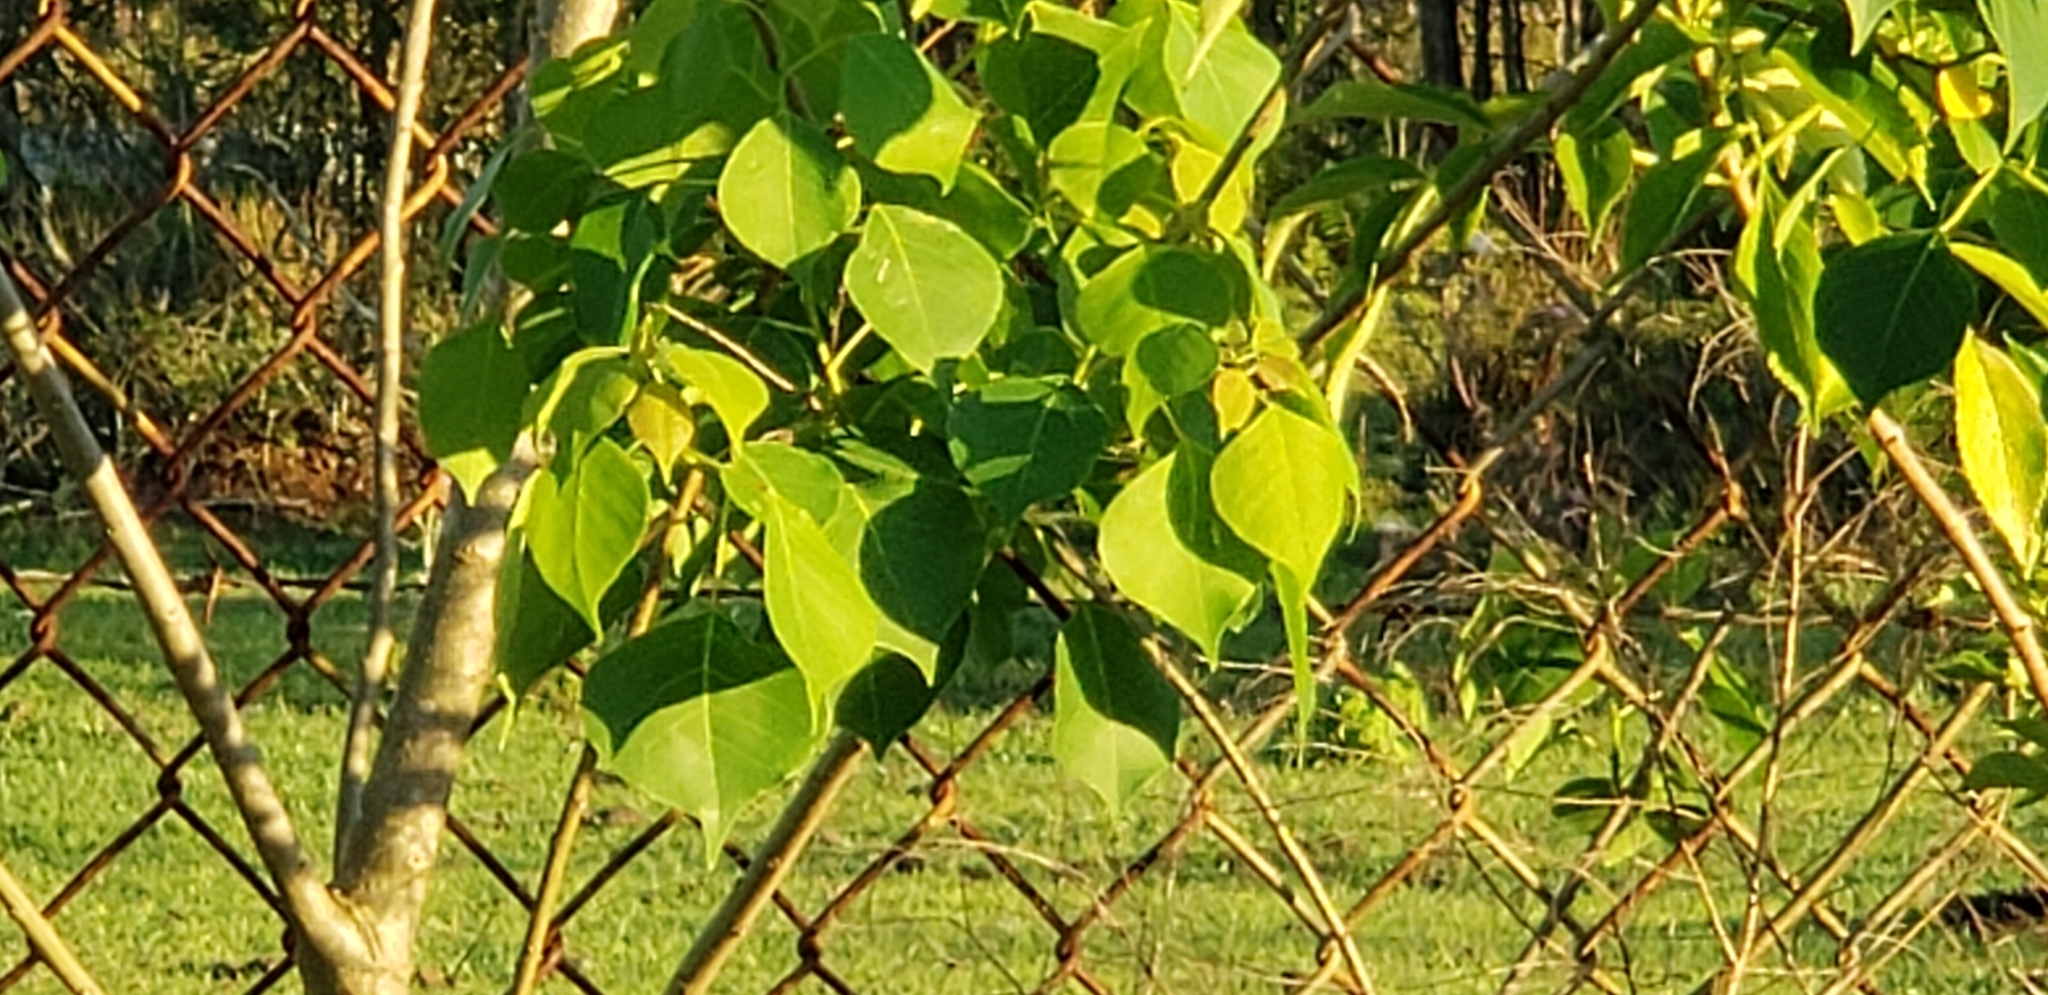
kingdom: Plantae
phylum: Tracheophyta
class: Magnoliopsida
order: Malpighiales
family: Euphorbiaceae
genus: Triadica
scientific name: Triadica sebifera
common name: Chinese tallow
